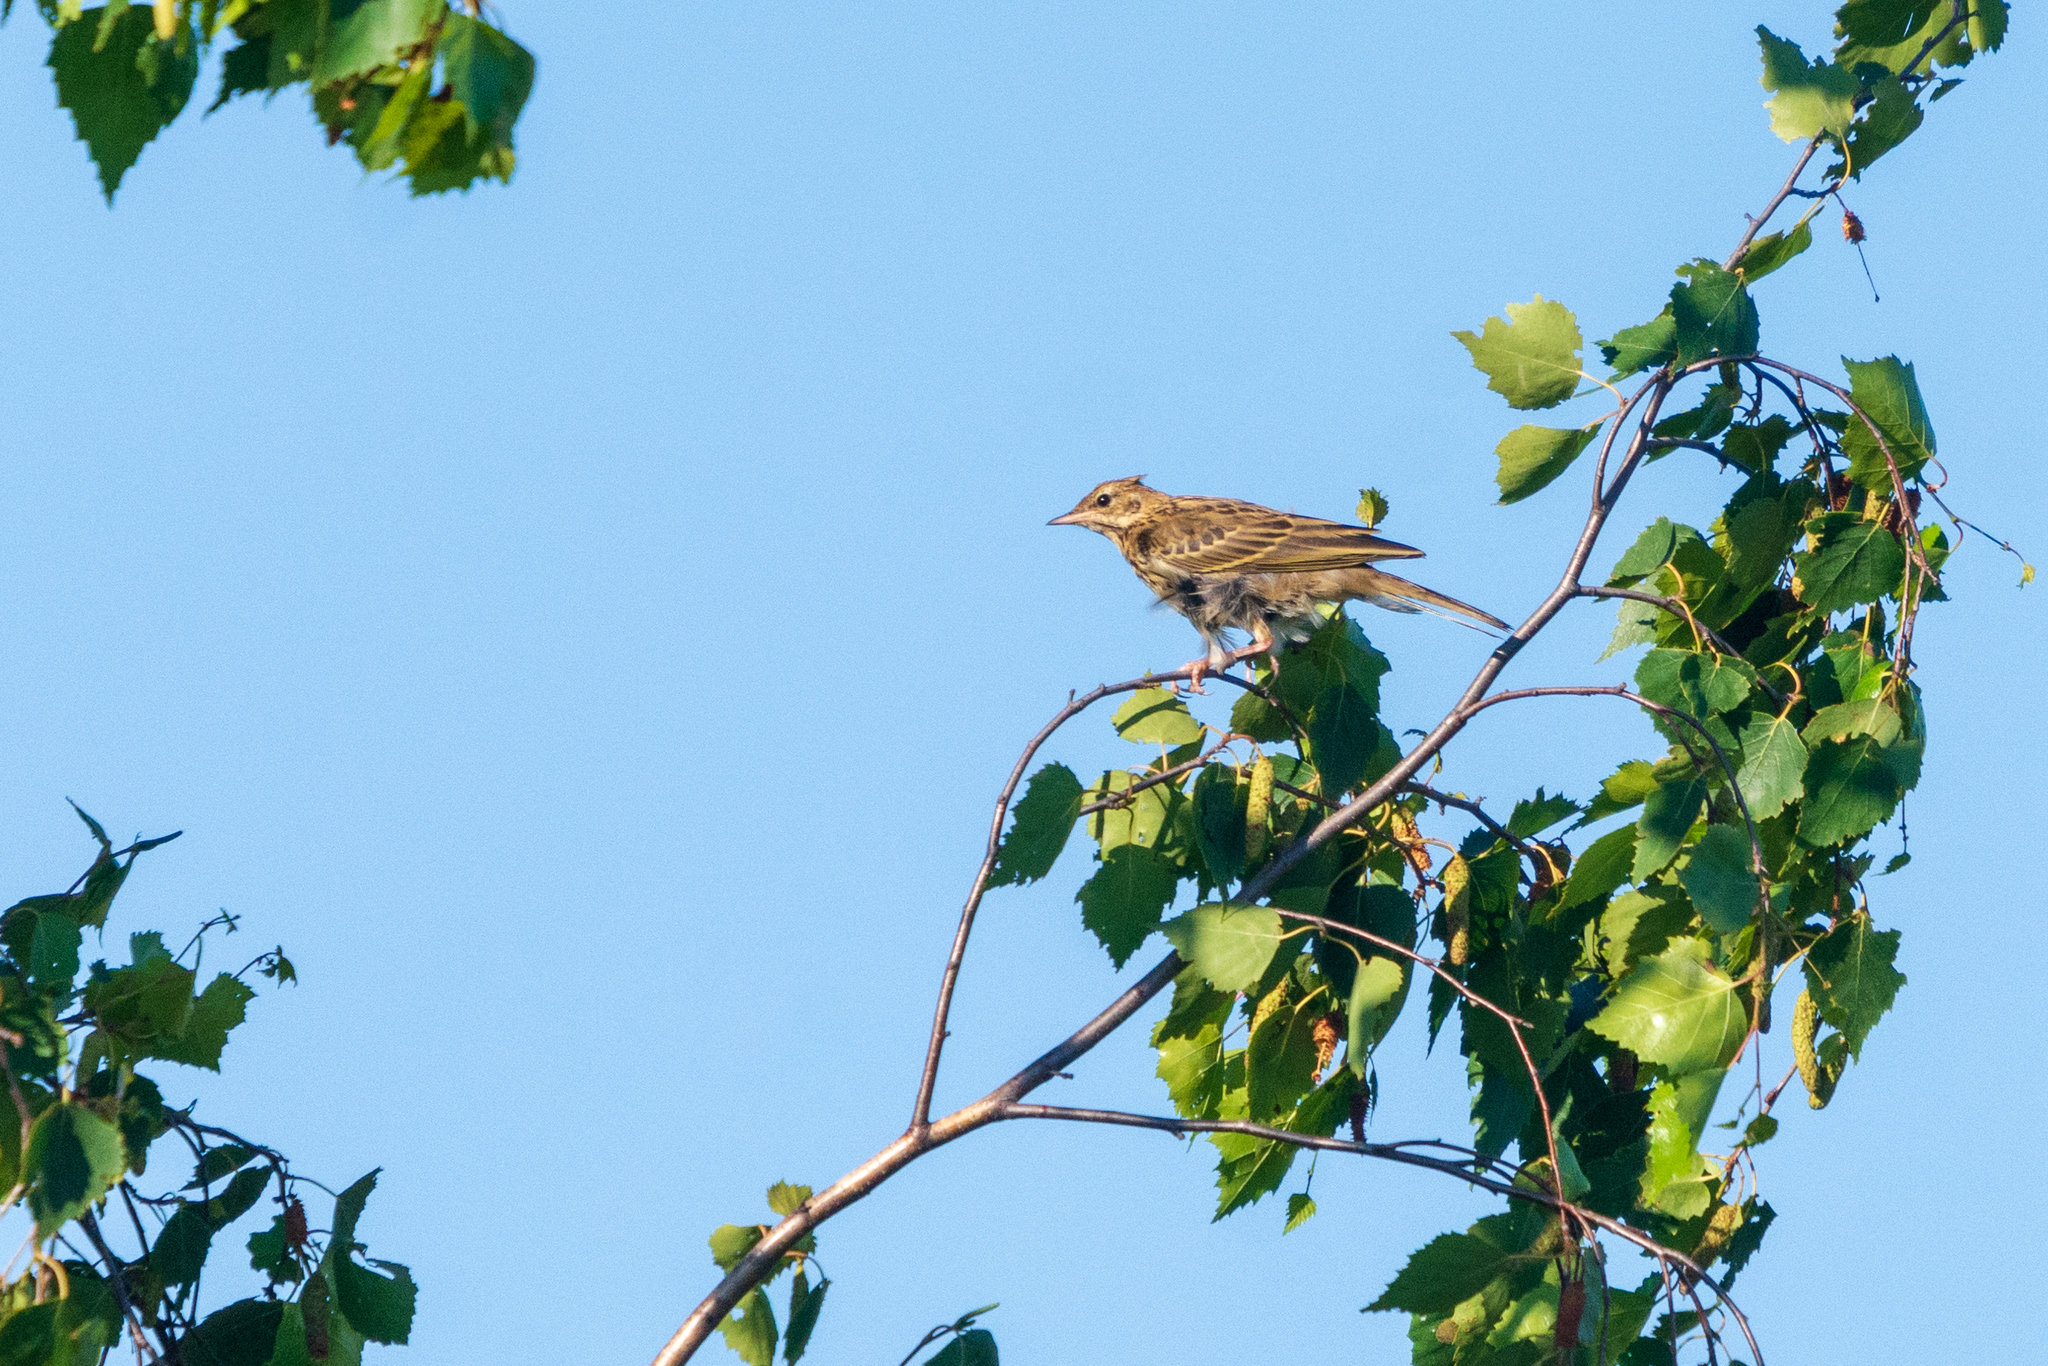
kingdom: Animalia
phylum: Chordata
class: Aves
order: Passeriformes
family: Motacillidae
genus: Anthus
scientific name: Anthus trivialis
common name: Tree pipit
